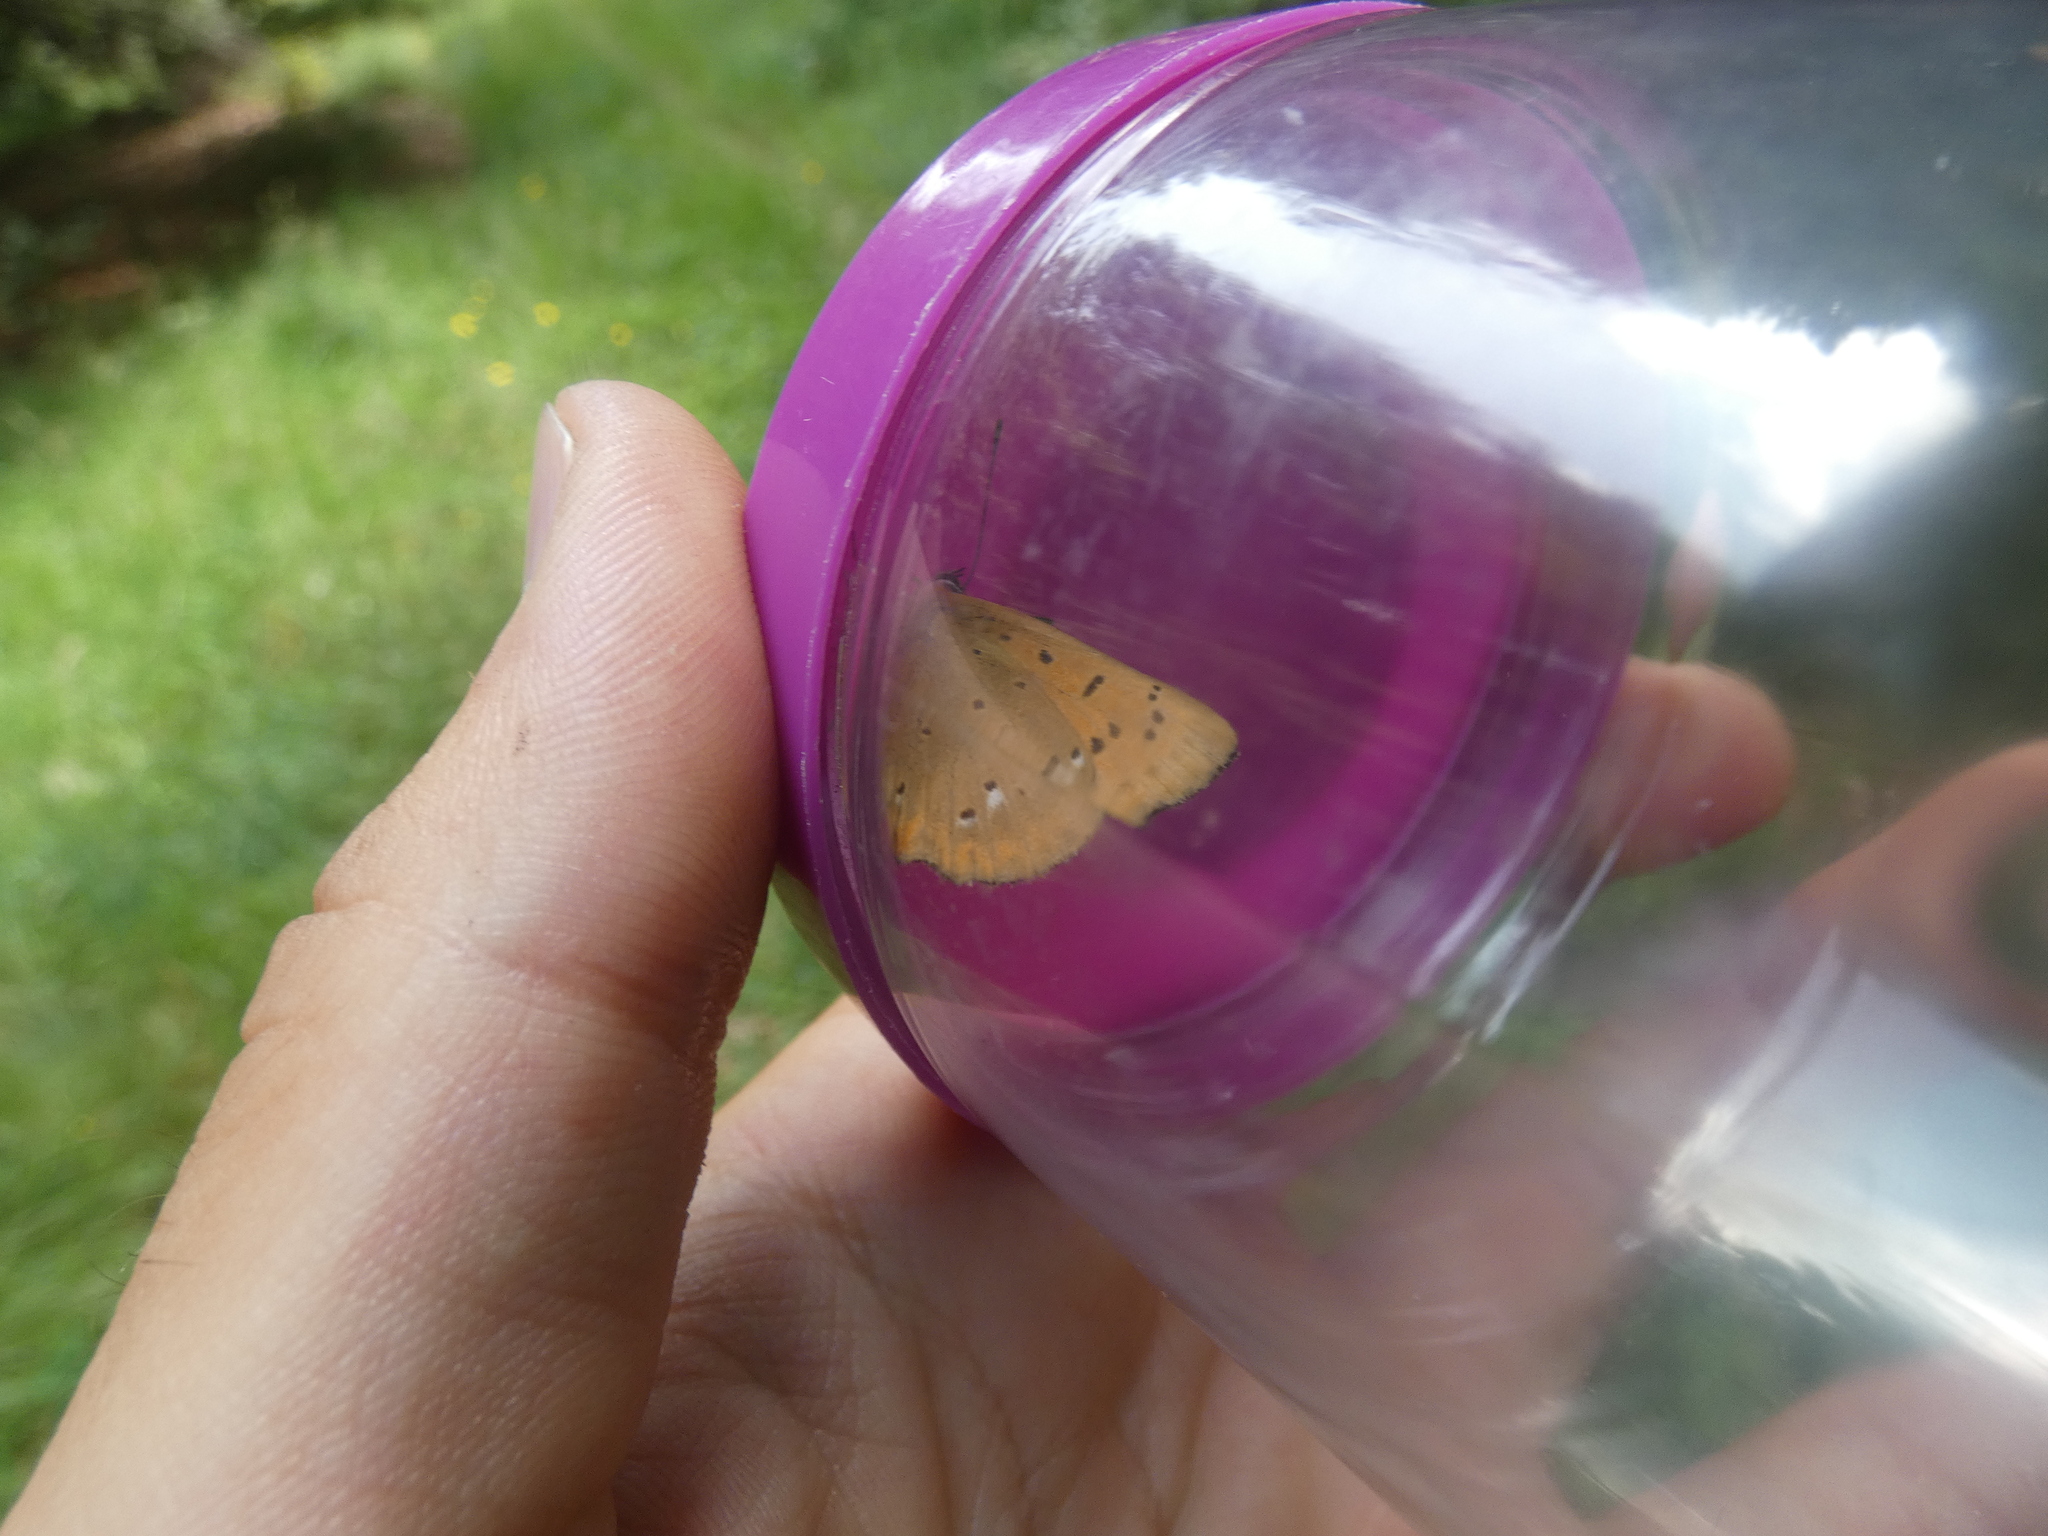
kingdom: Animalia
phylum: Arthropoda
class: Insecta
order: Lepidoptera
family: Lycaenidae
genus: Lycaena
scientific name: Lycaena virgaureae
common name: Scarce copper
